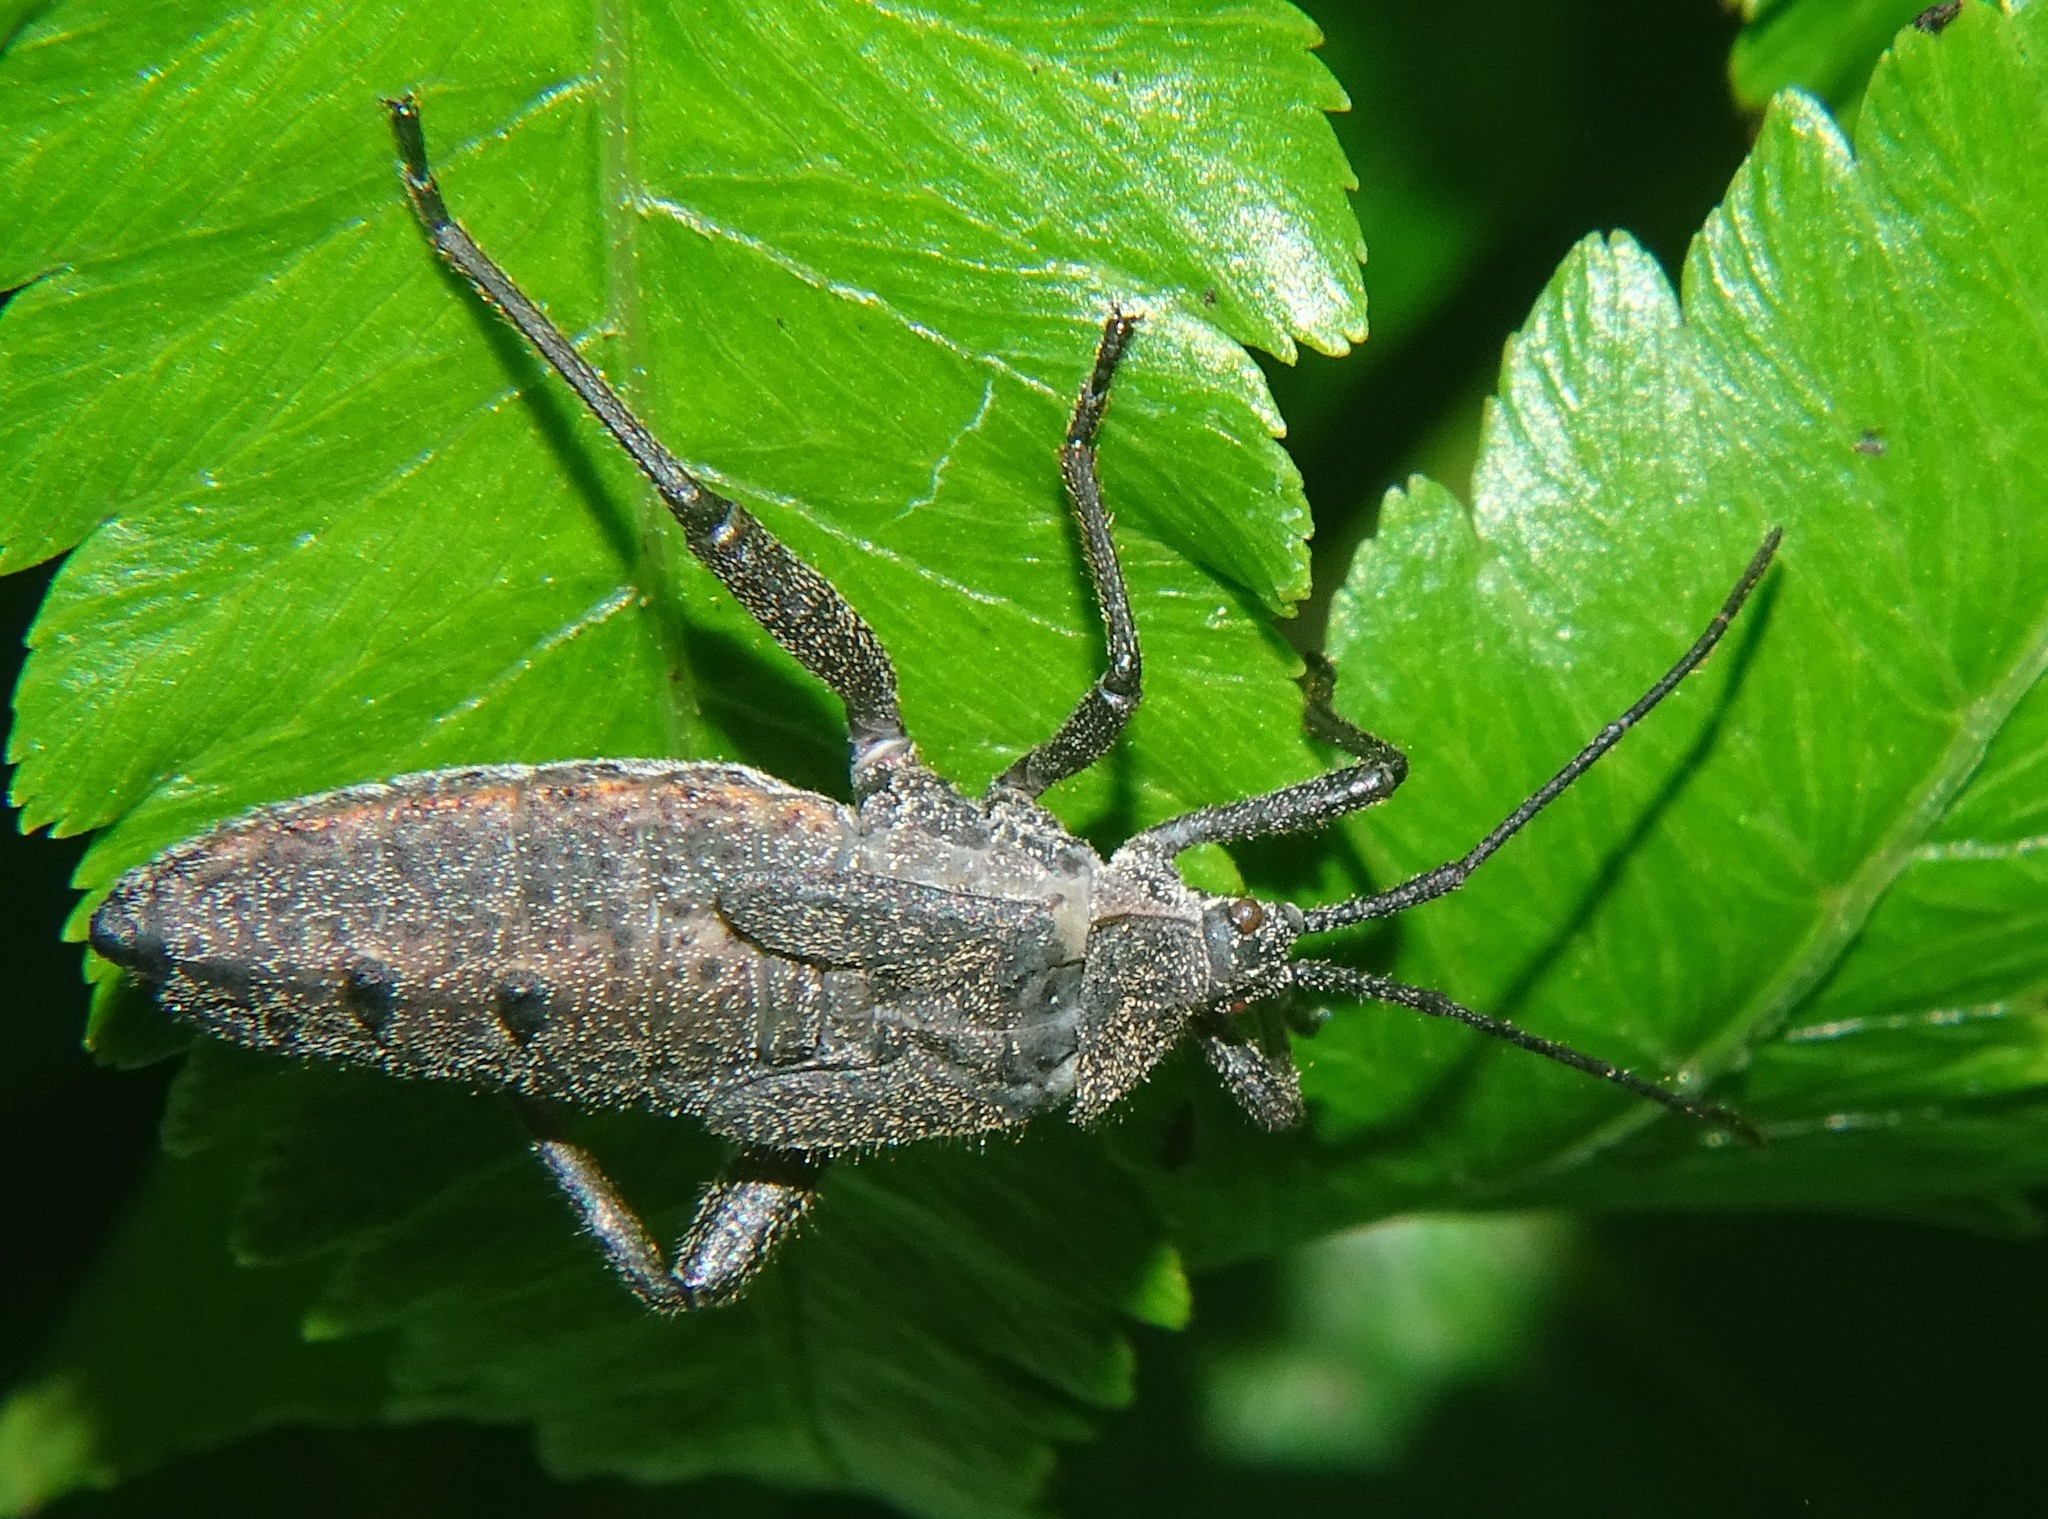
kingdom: Animalia
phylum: Arthropoda
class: Insecta
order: Hemiptera
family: Coreidae
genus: Physomerus
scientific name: Physomerus grossipes
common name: Squash bug
